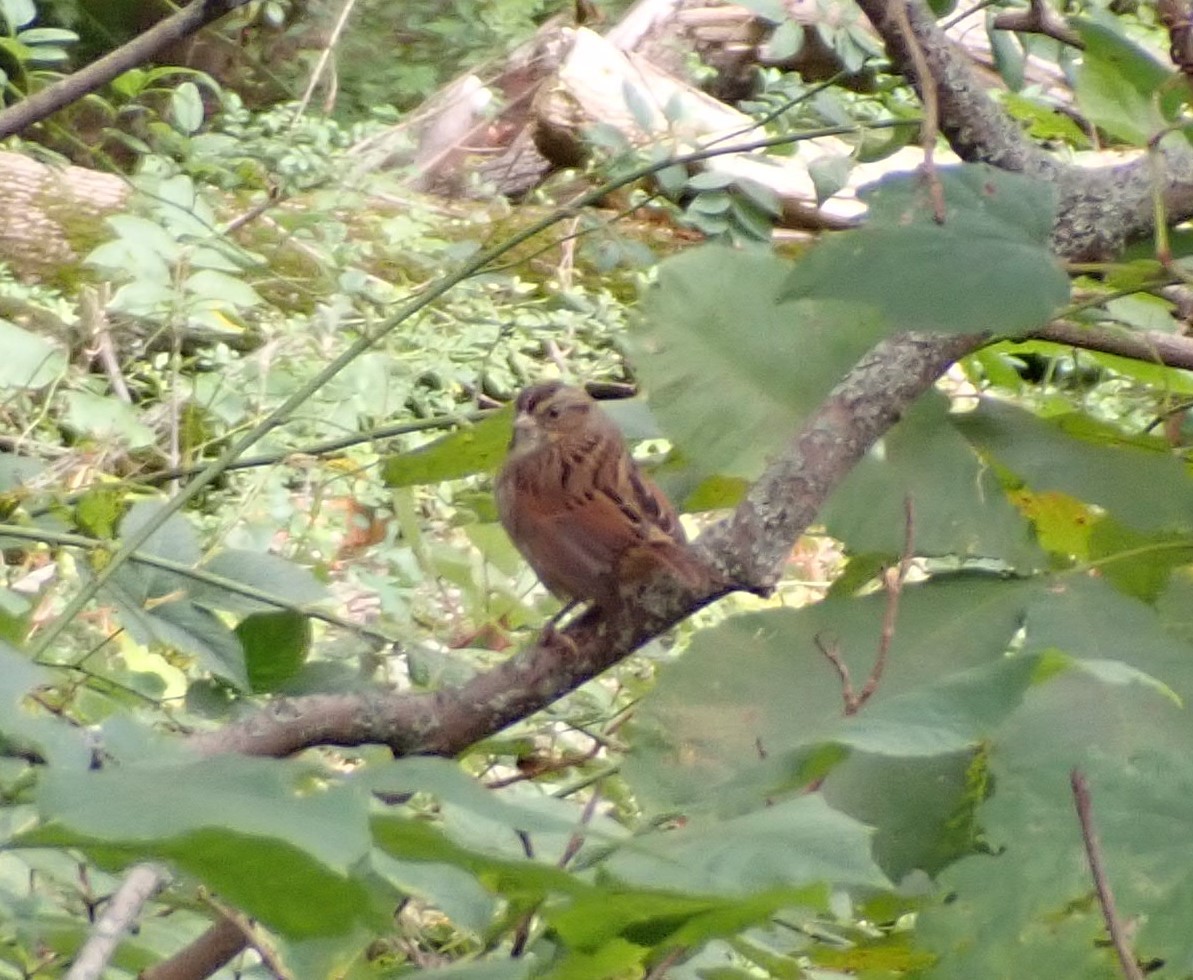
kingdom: Animalia
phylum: Chordata
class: Aves
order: Passeriformes
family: Passerellidae
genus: Melospiza
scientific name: Melospiza georgiana
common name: Swamp sparrow
